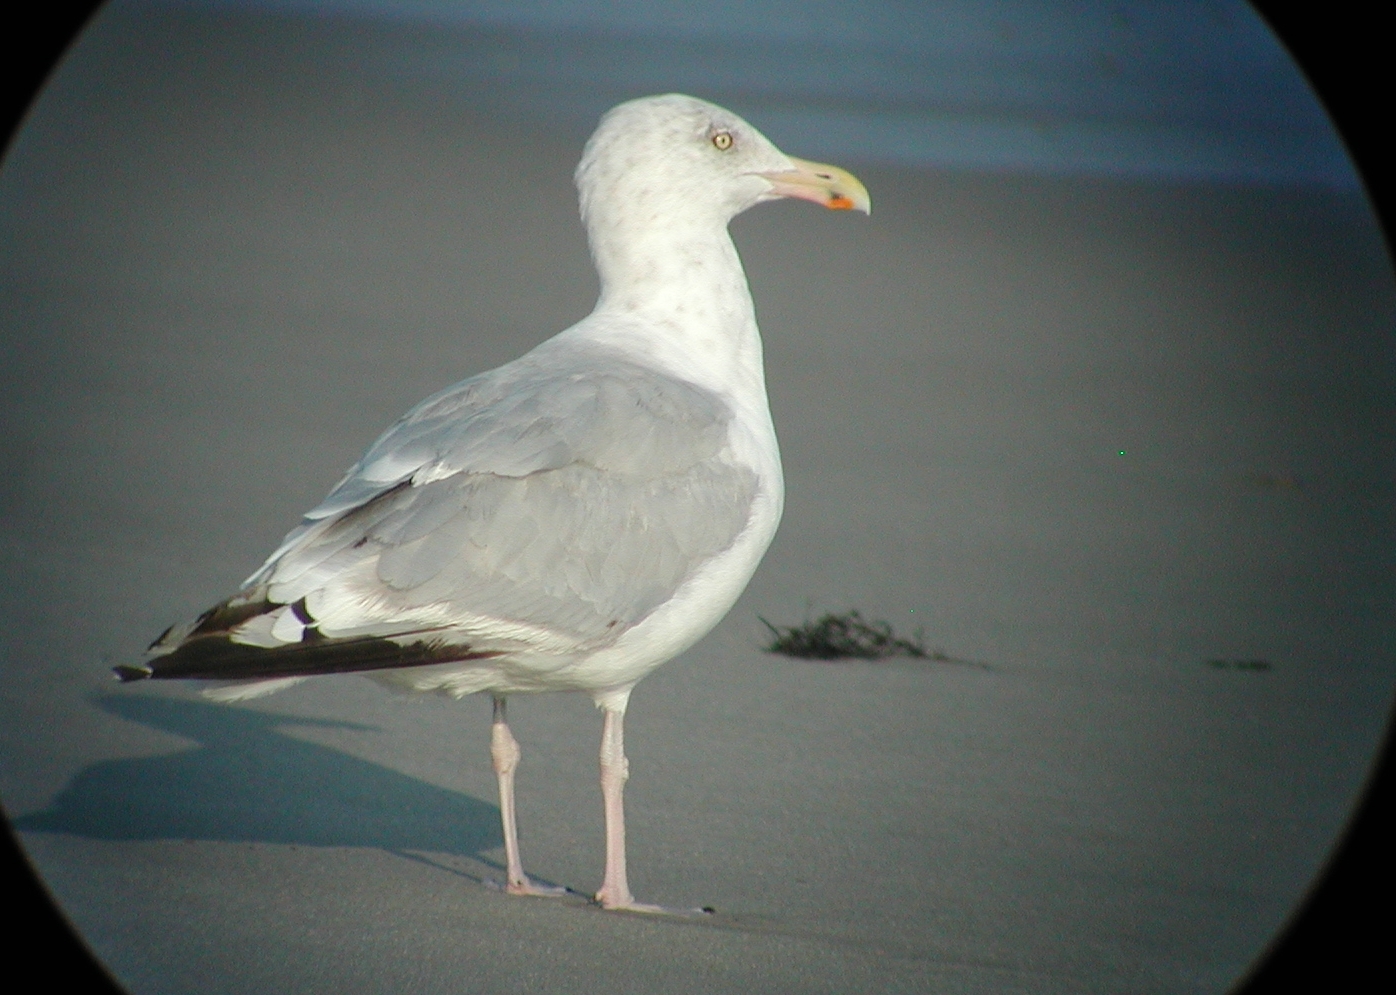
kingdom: Animalia
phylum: Chordata
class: Aves
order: Charadriiformes
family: Laridae
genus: Larus
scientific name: Larus argentatus
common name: Herring gull
